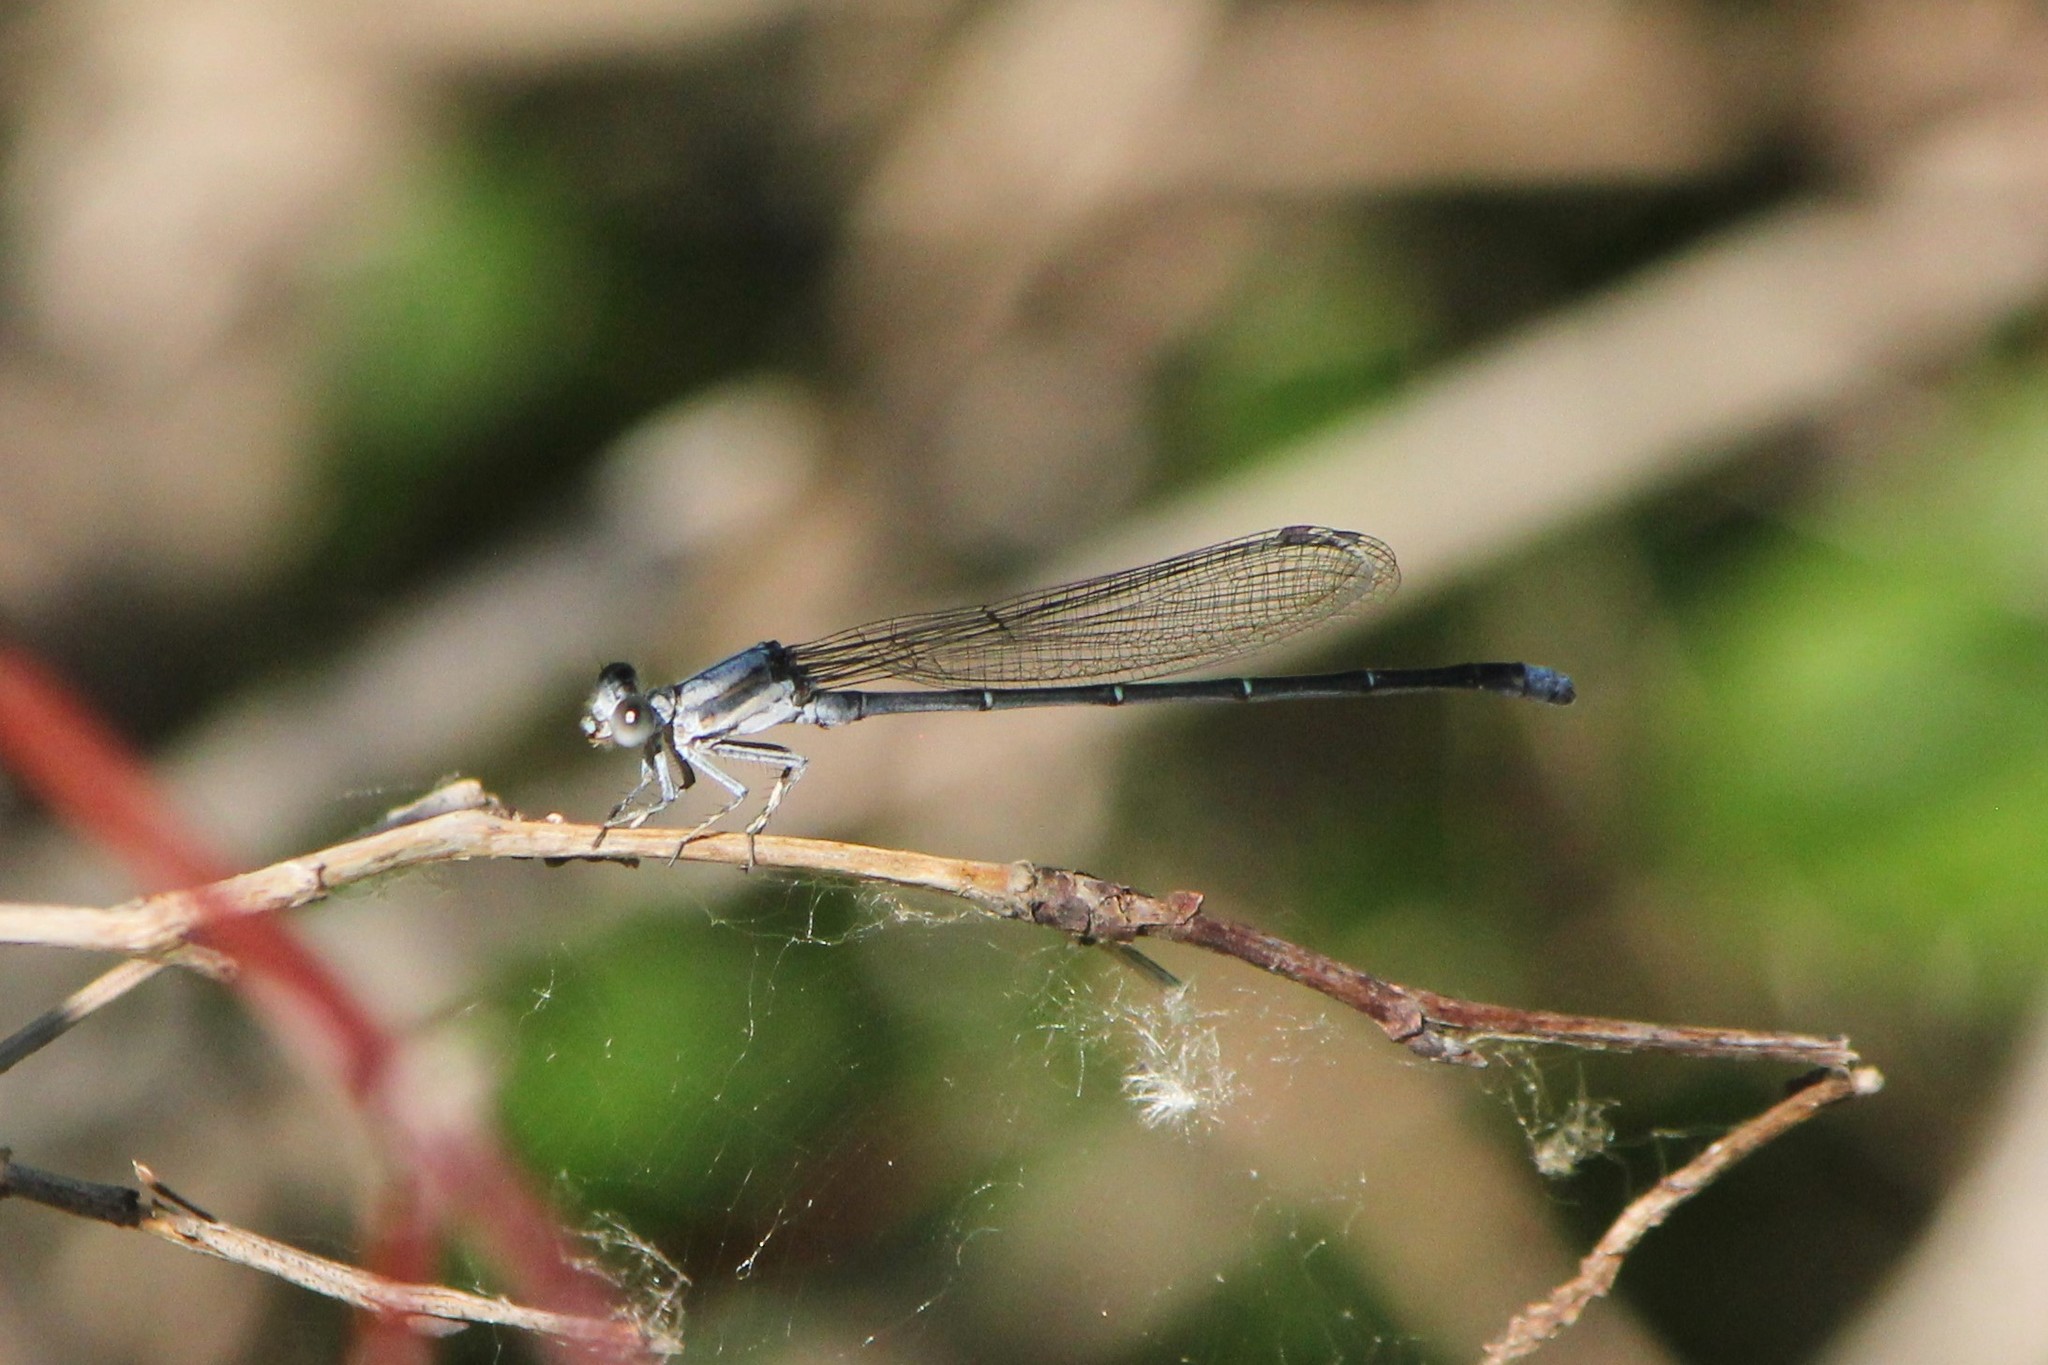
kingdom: Animalia
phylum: Arthropoda
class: Insecta
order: Odonata
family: Coenagrionidae
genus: Argia
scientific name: Argia moesta
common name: Powdered dancer
